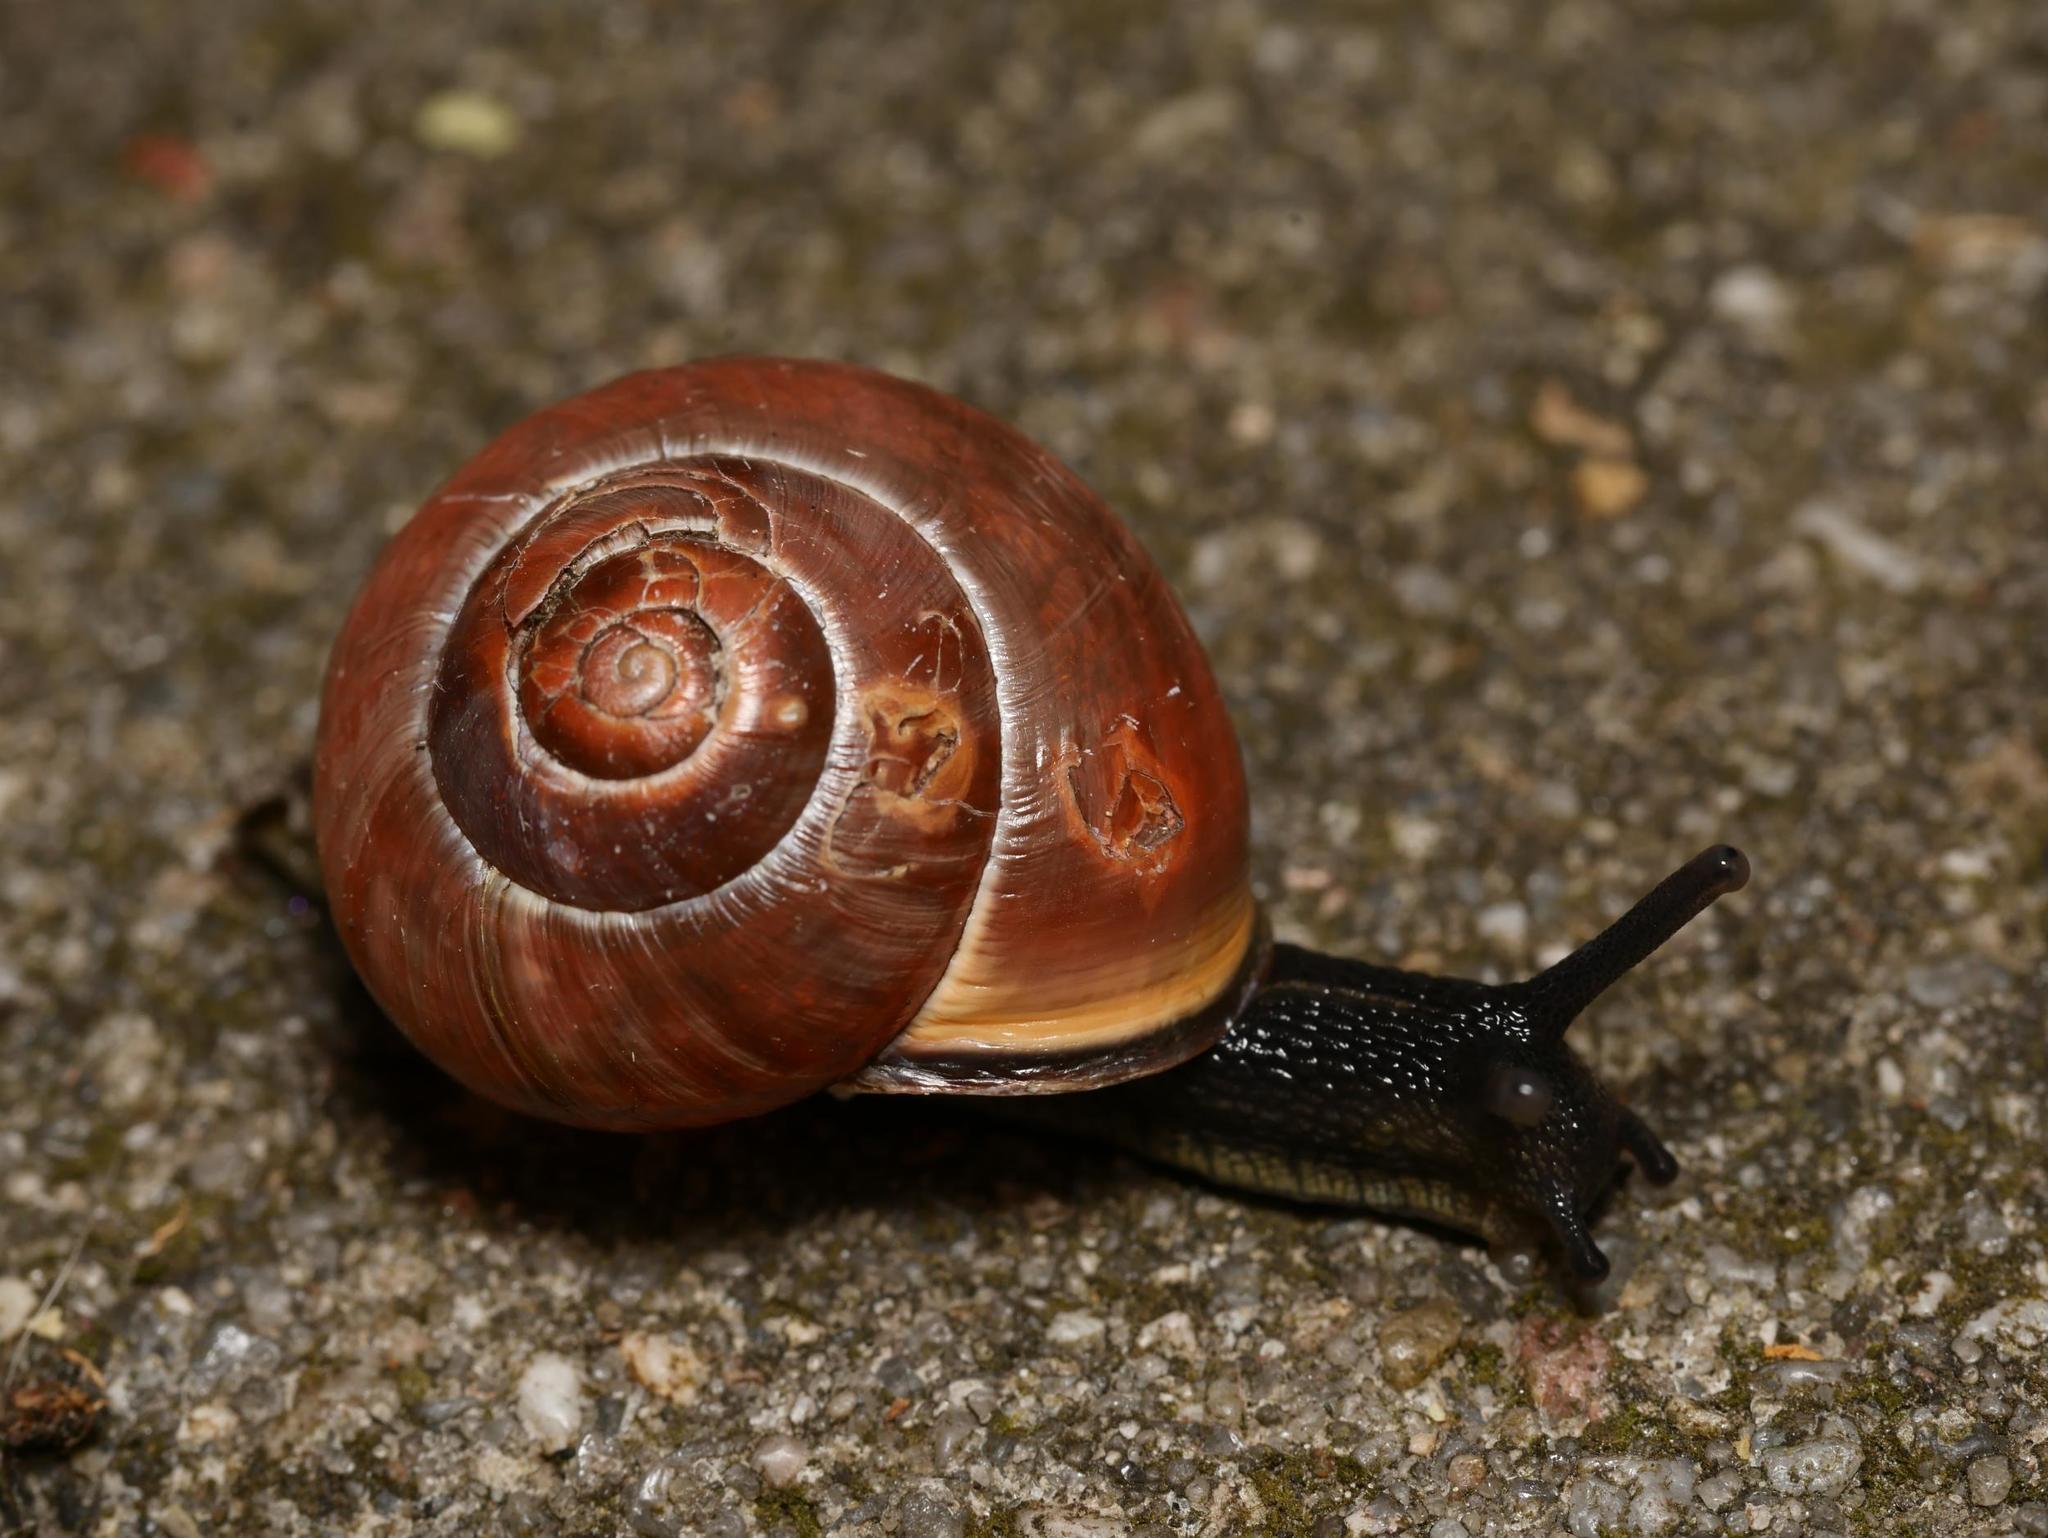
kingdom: Animalia
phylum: Mollusca
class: Gastropoda
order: Stylommatophora
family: Helicidae
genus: Cepaea
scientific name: Cepaea nemoralis
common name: Grovesnail
